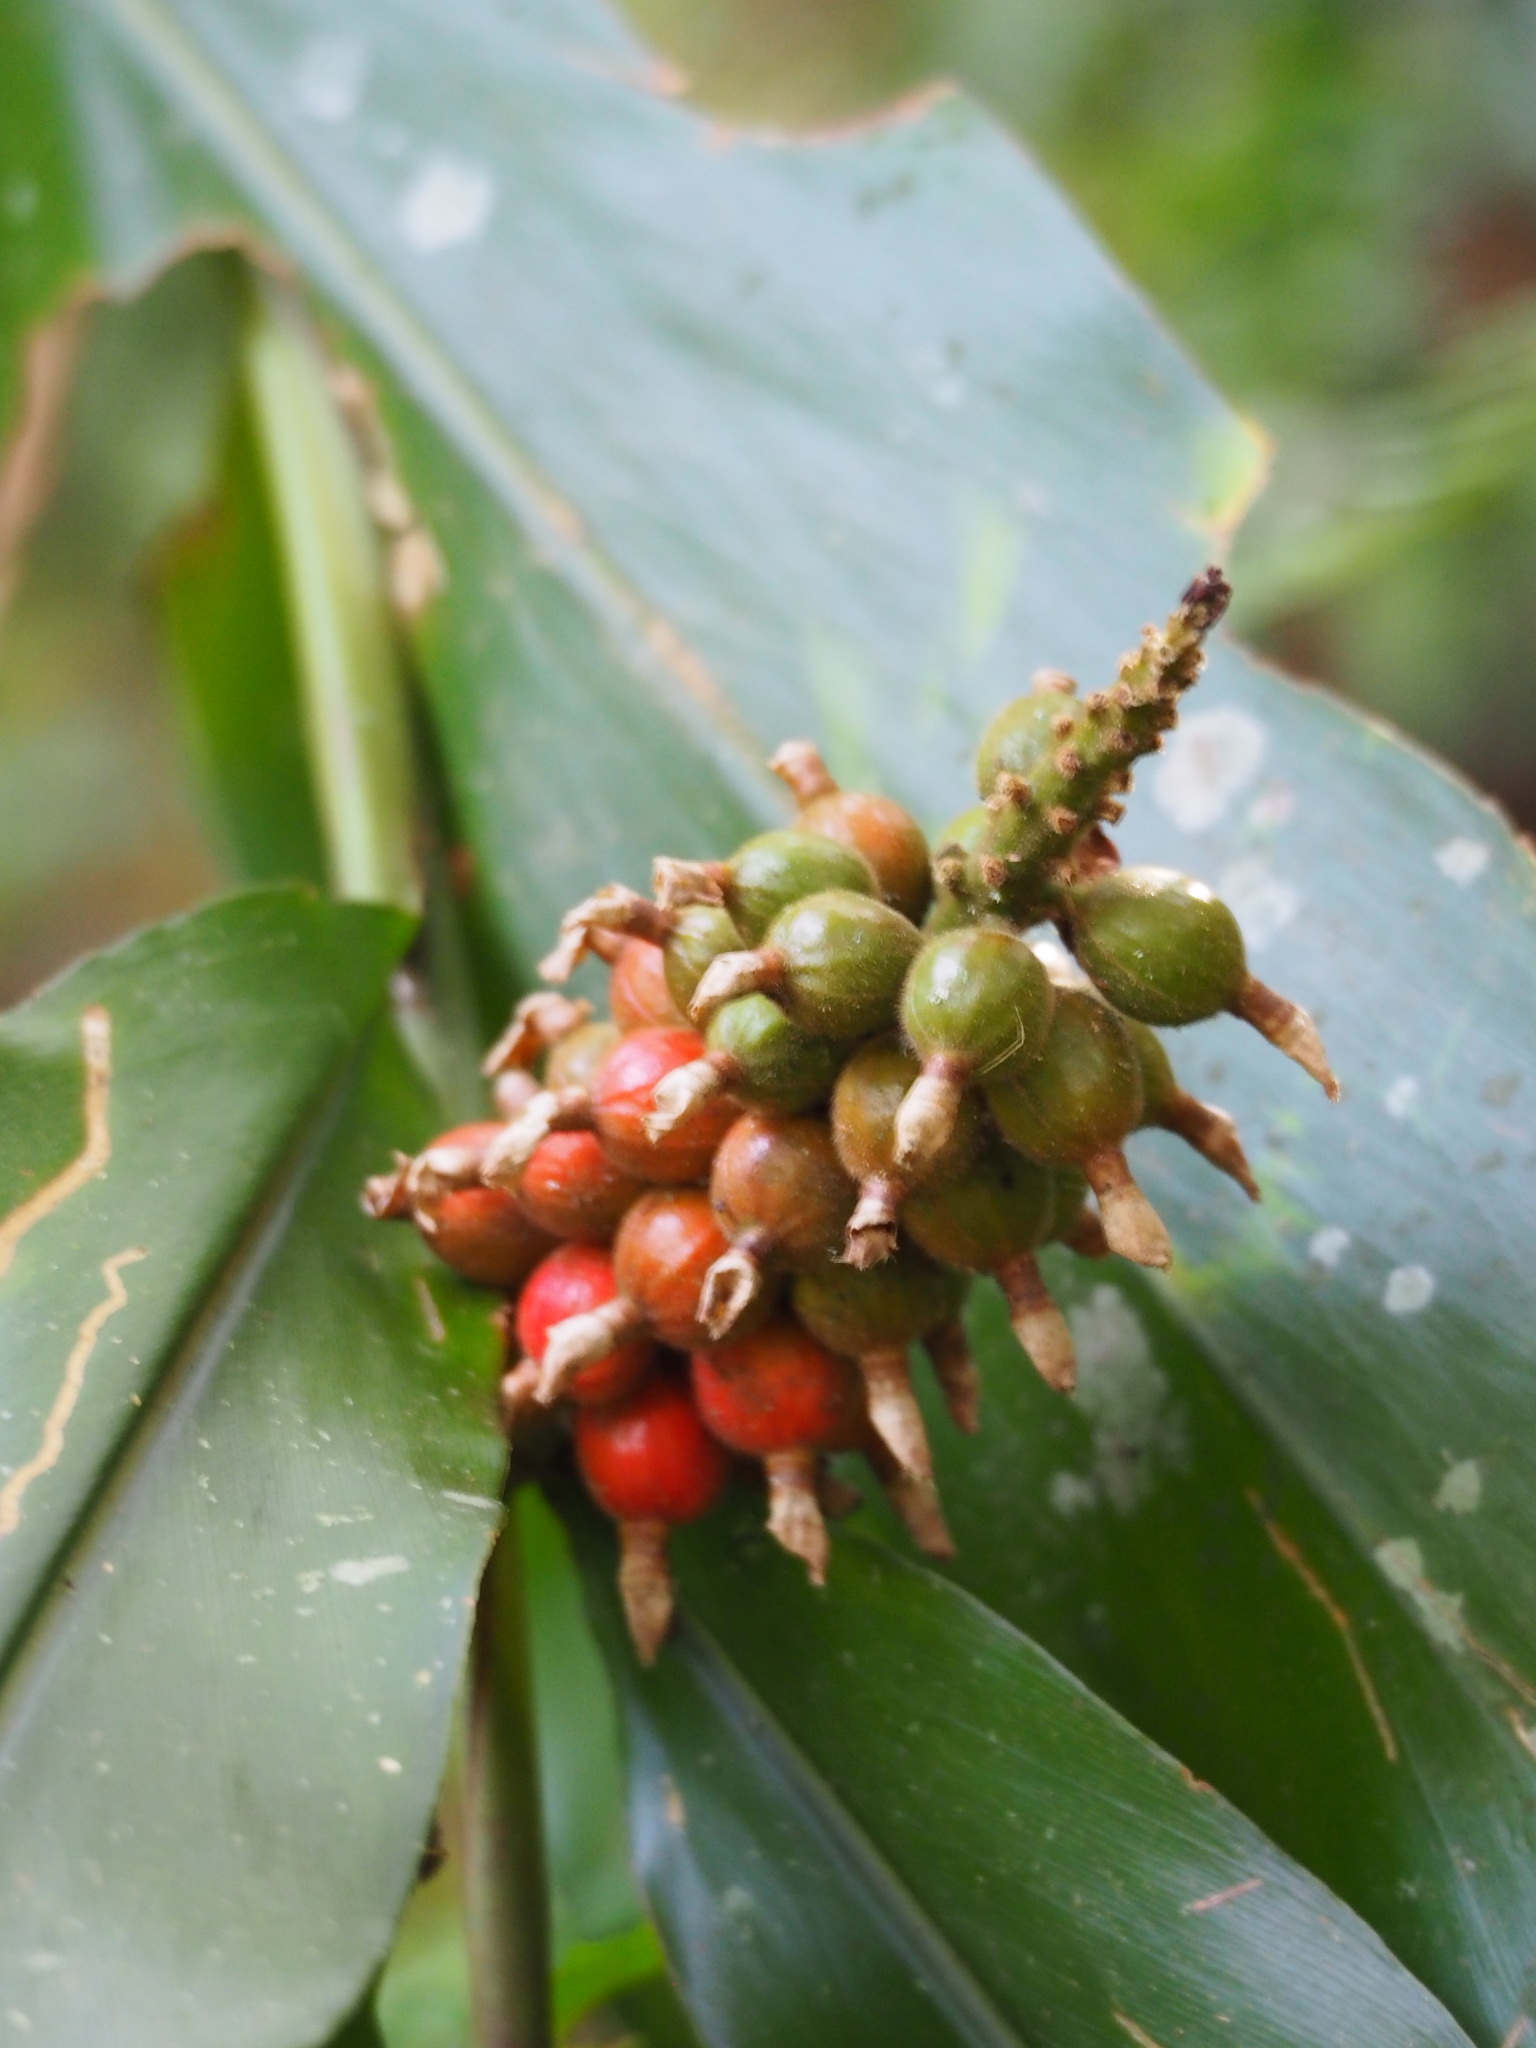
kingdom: Plantae
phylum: Tracheophyta
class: Liliopsida
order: Zingiberales
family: Zingiberaceae
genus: Alpinia
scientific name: Alpinia pricei
